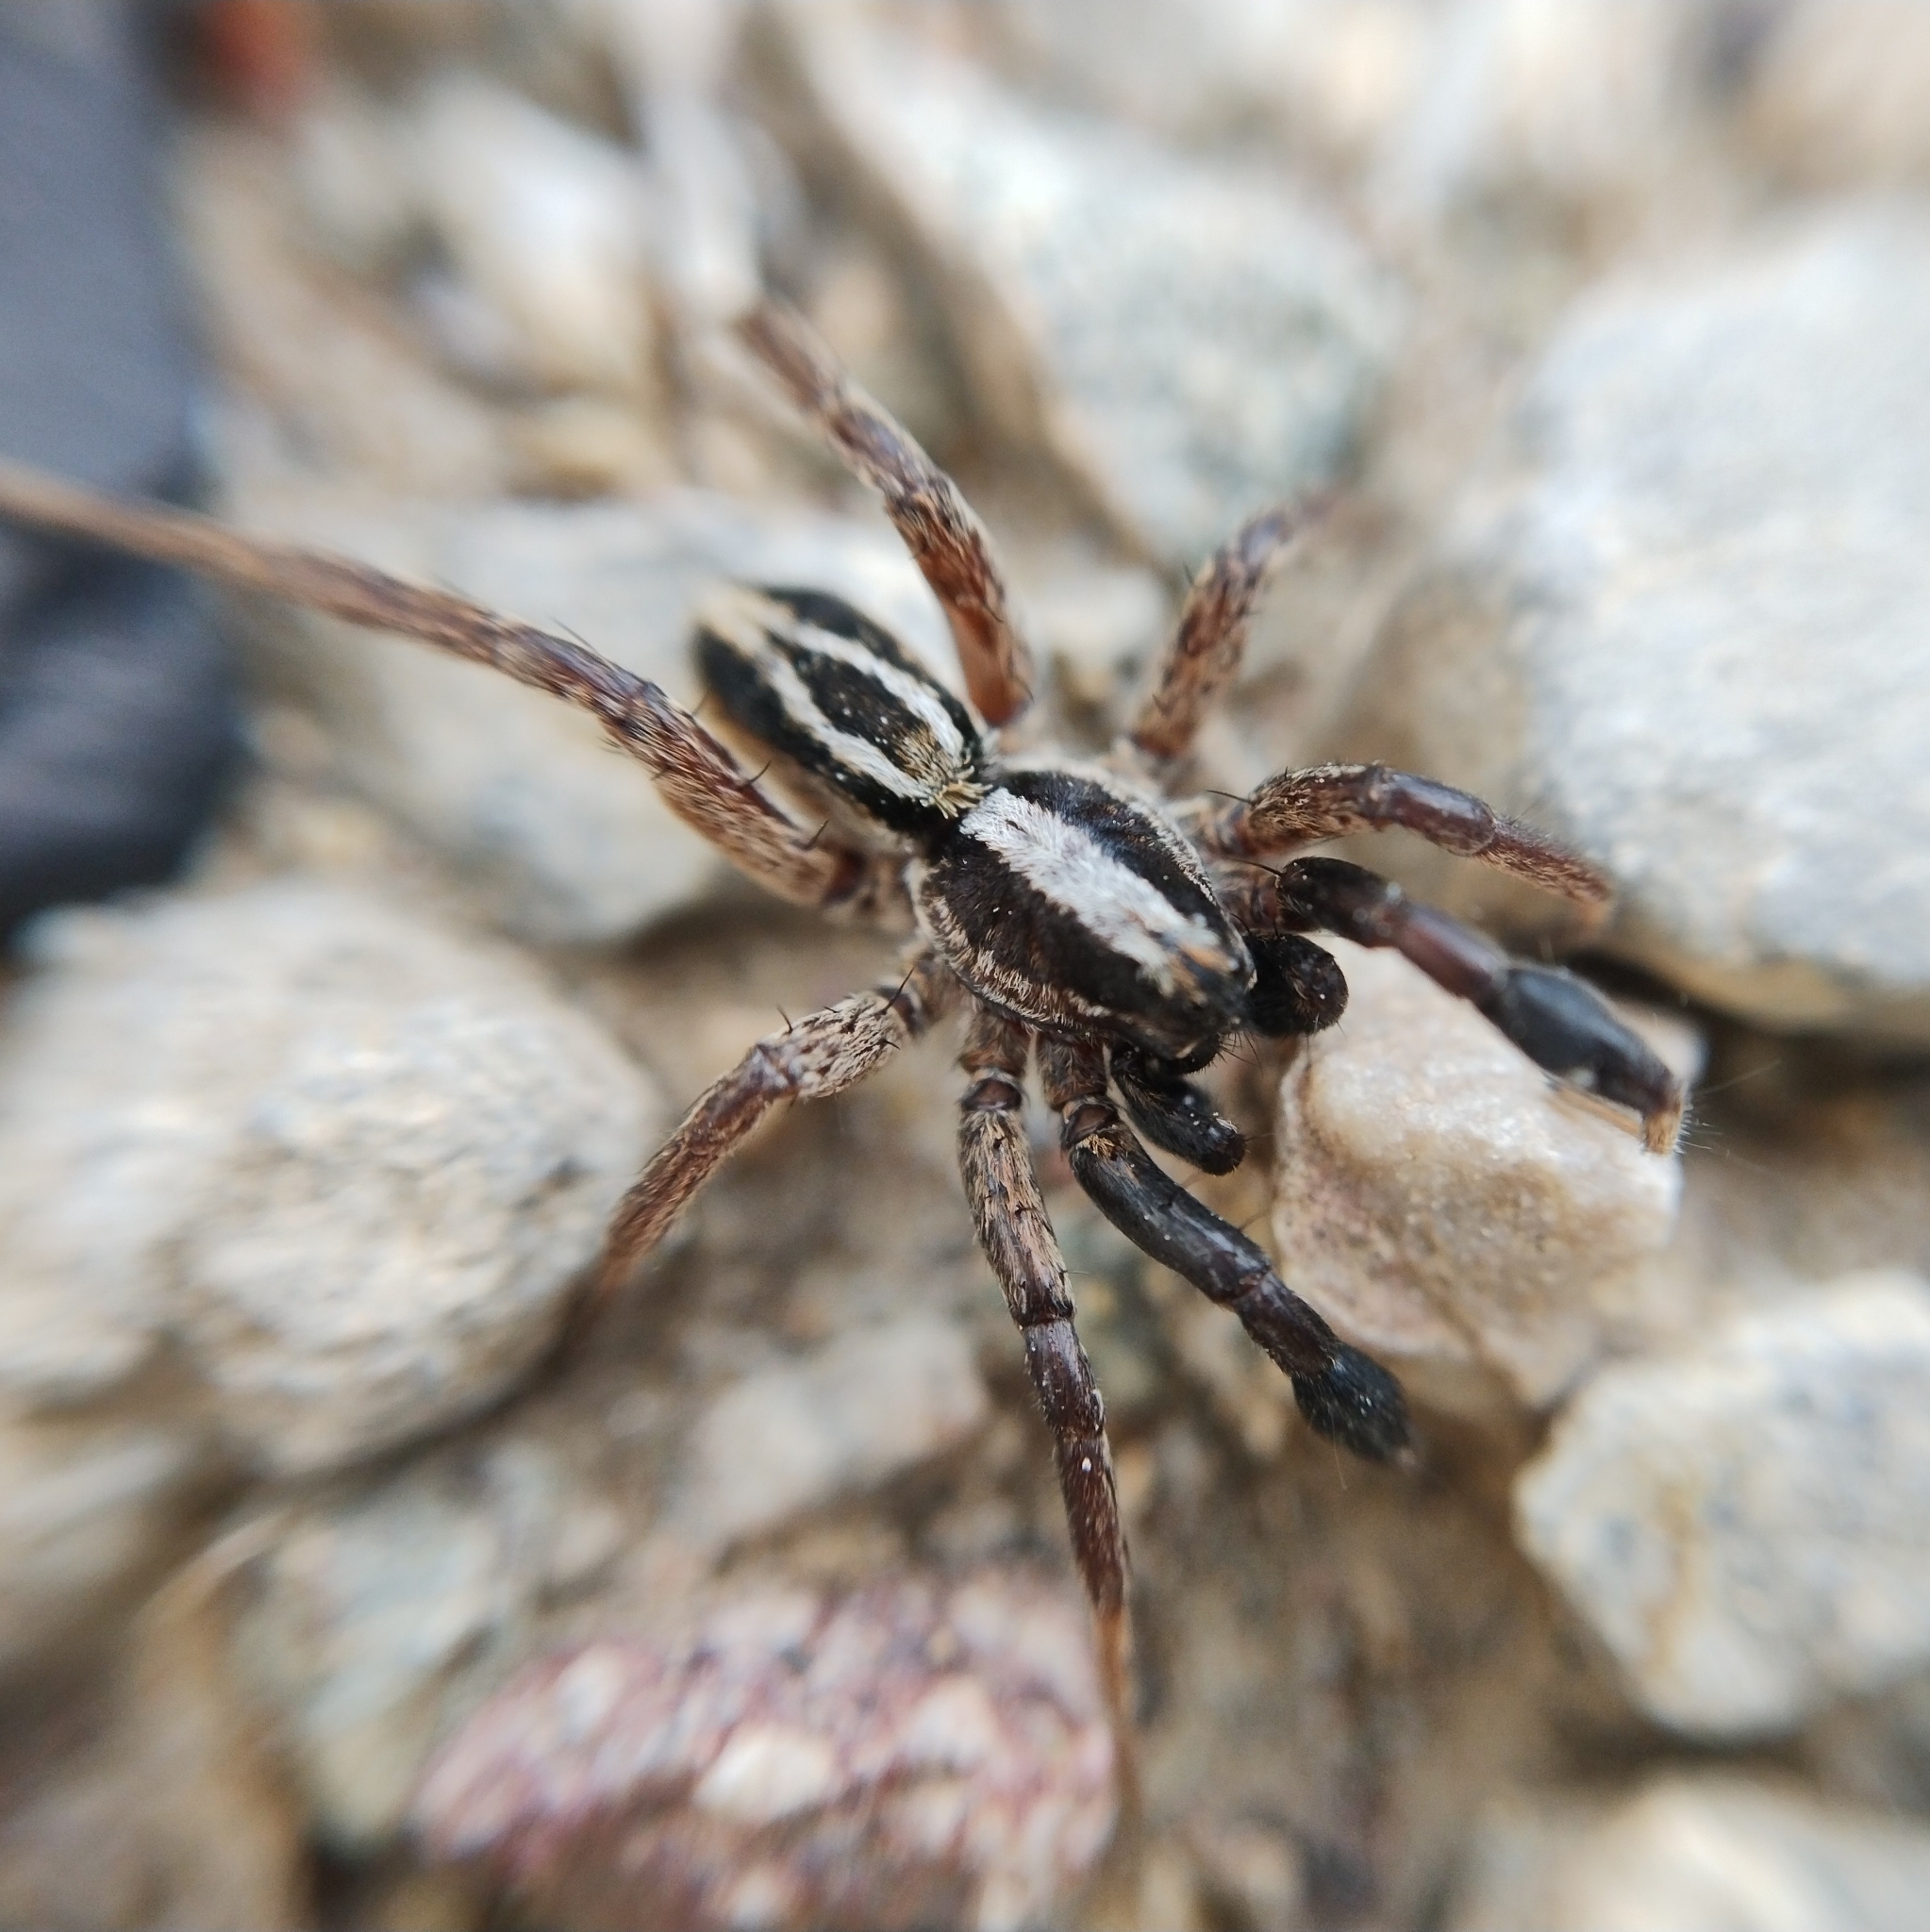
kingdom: Animalia
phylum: Arthropoda
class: Arachnida
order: Araneae
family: Lycosidae
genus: Alopecosa
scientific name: Alopecosa cuneata
